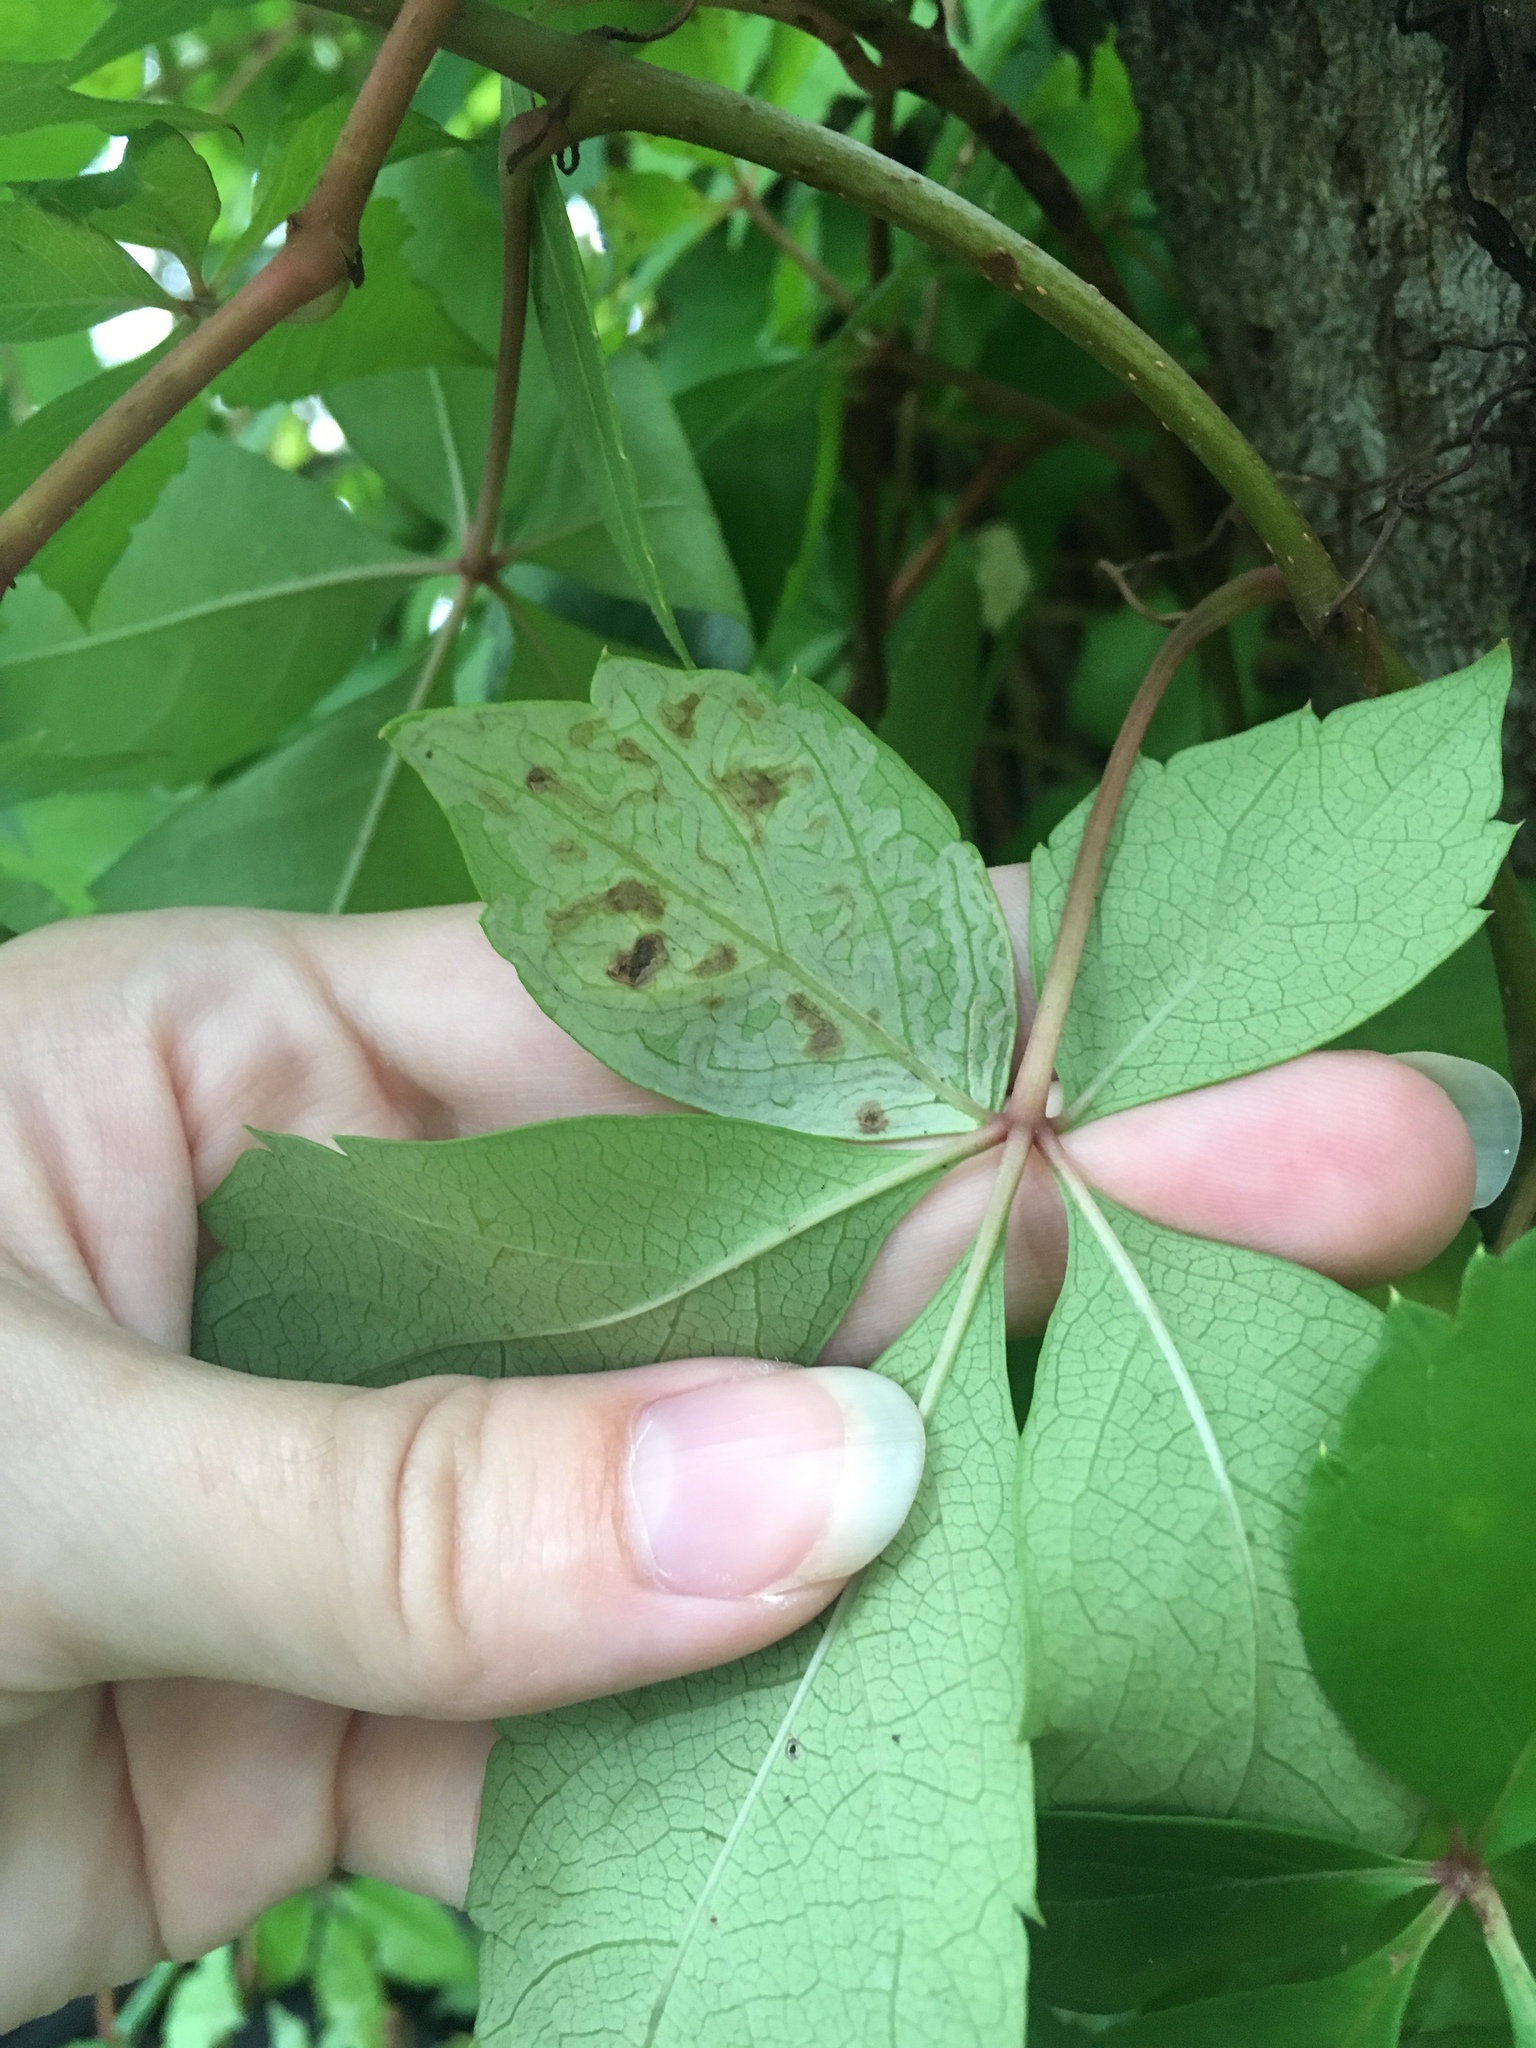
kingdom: Animalia
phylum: Arthropoda
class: Insecta
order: Lepidoptera
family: Gracillariidae
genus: Phyllocnistis
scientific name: Phyllocnistis ampelopsiella
